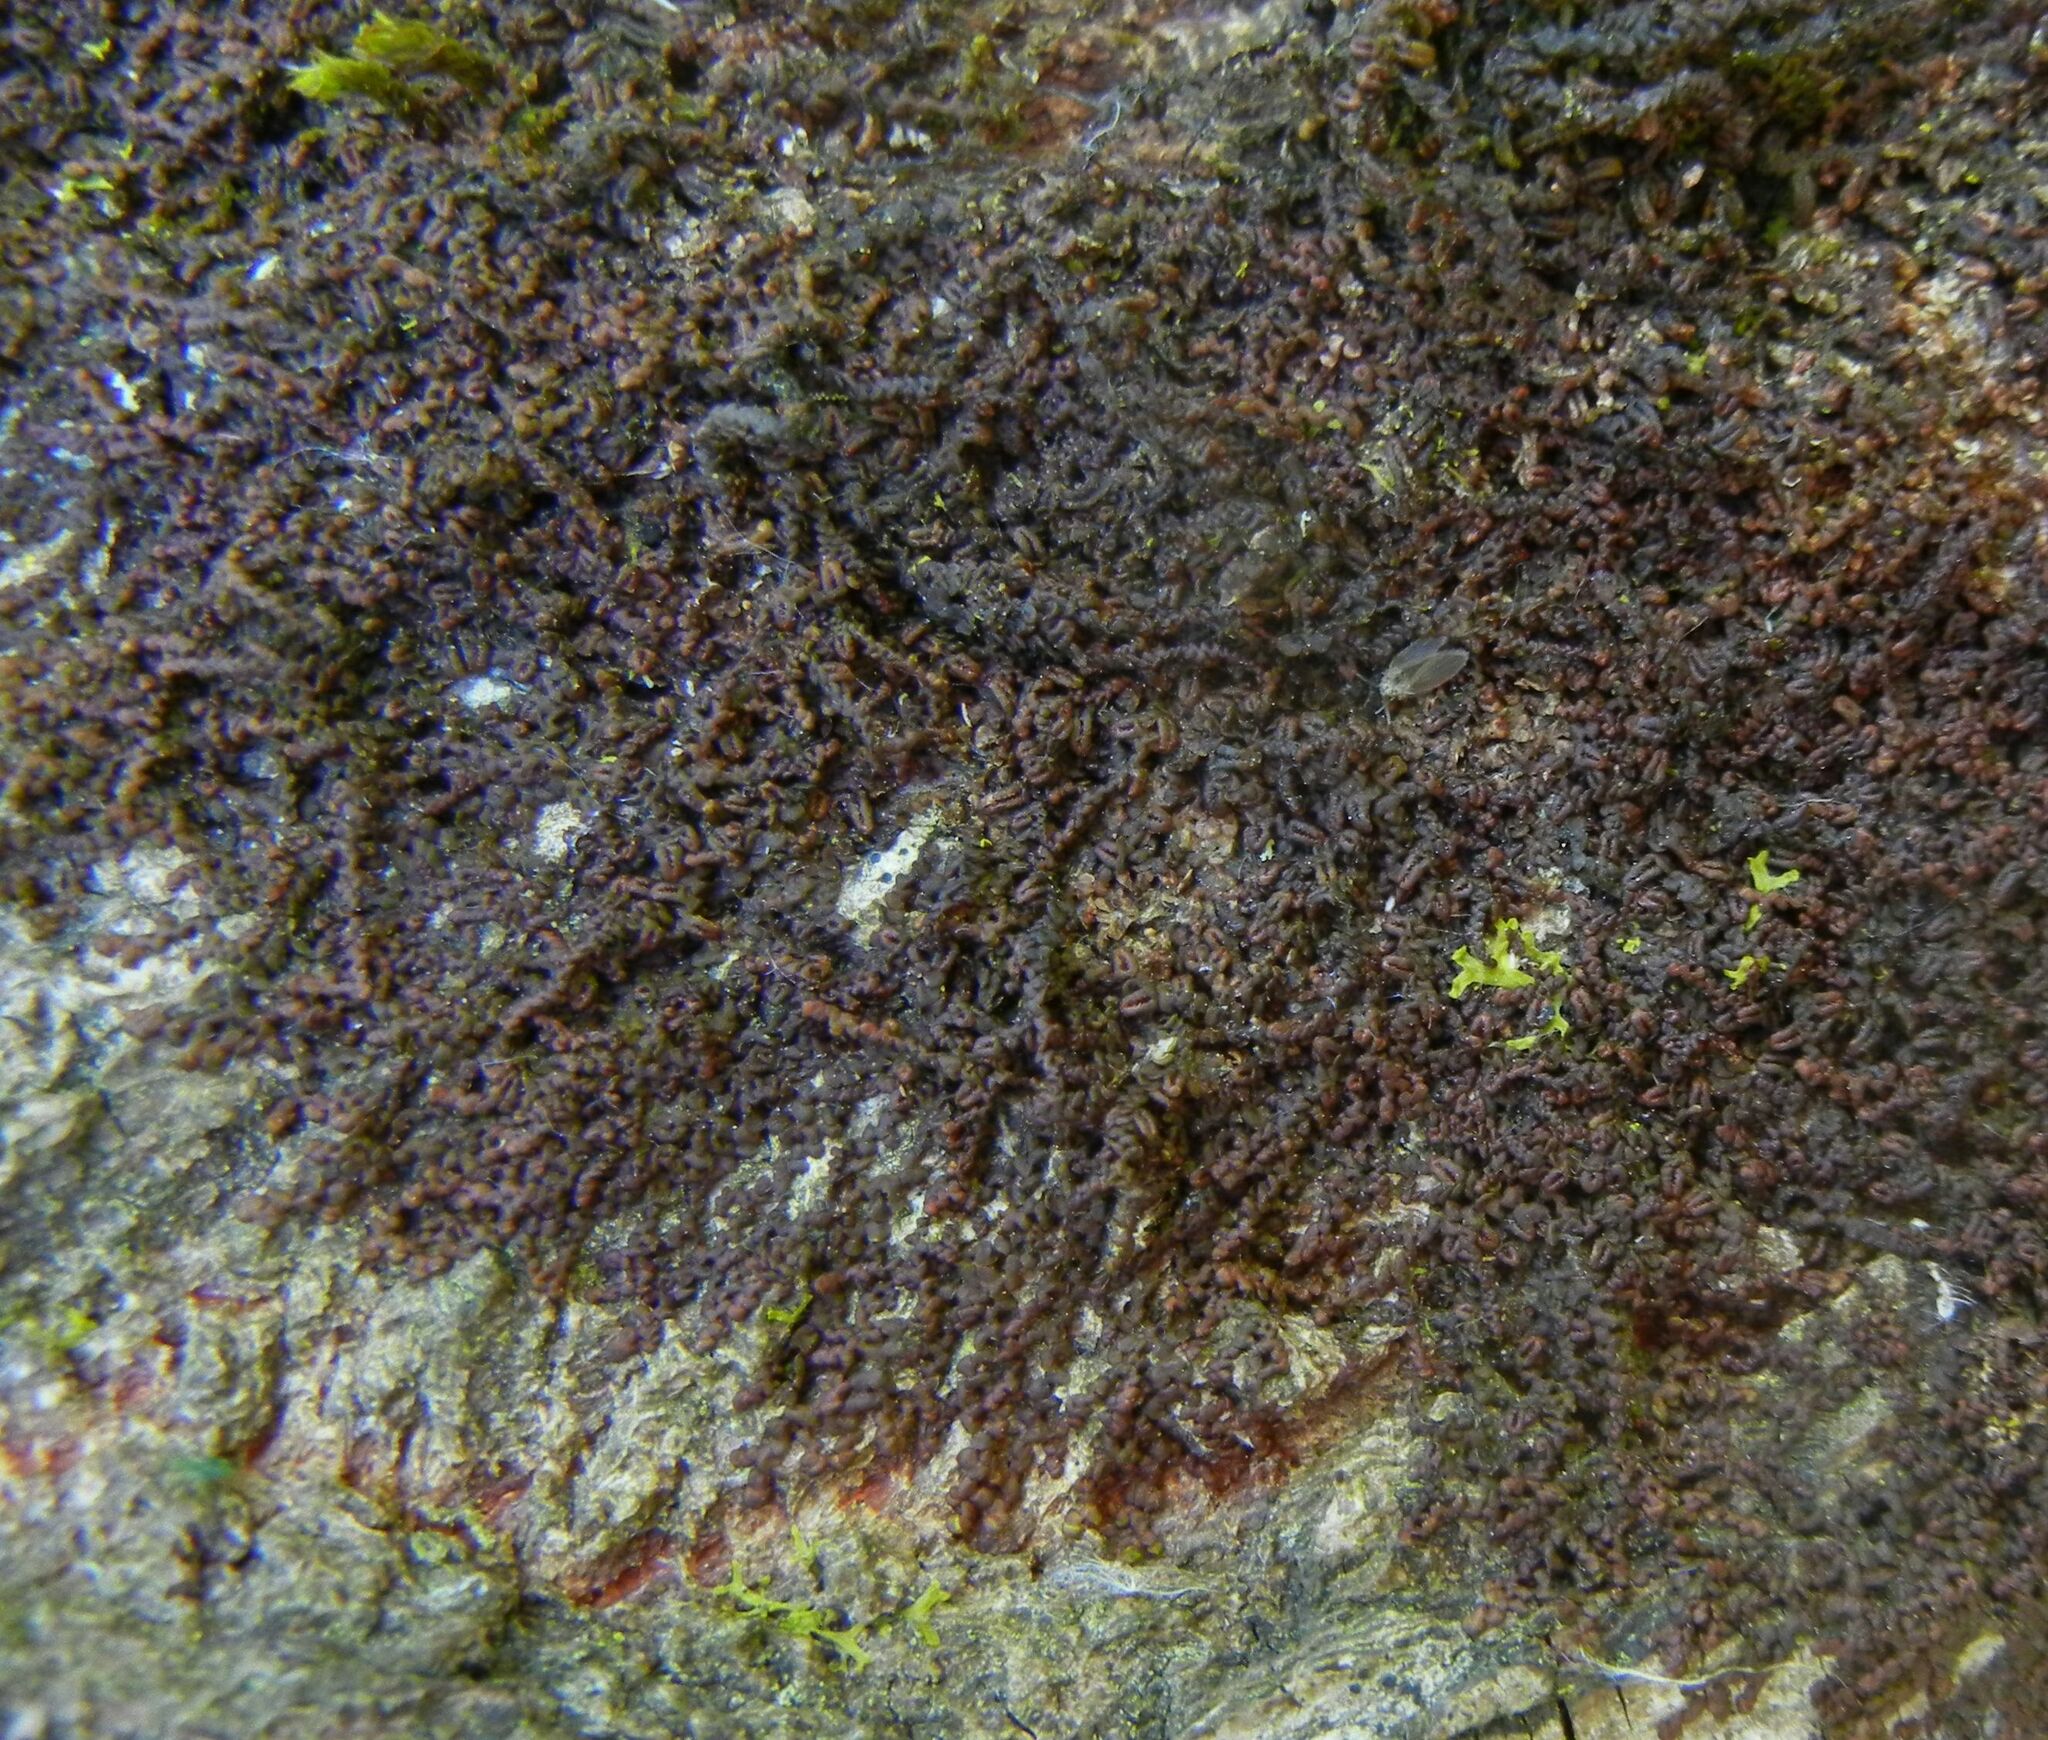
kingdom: Plantae
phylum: Marchantiophyta
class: Jungermanniopsida
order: Porellales
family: Frullaniaceae
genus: Frullania
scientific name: Frullania dilatata
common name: Dilated scalewort
